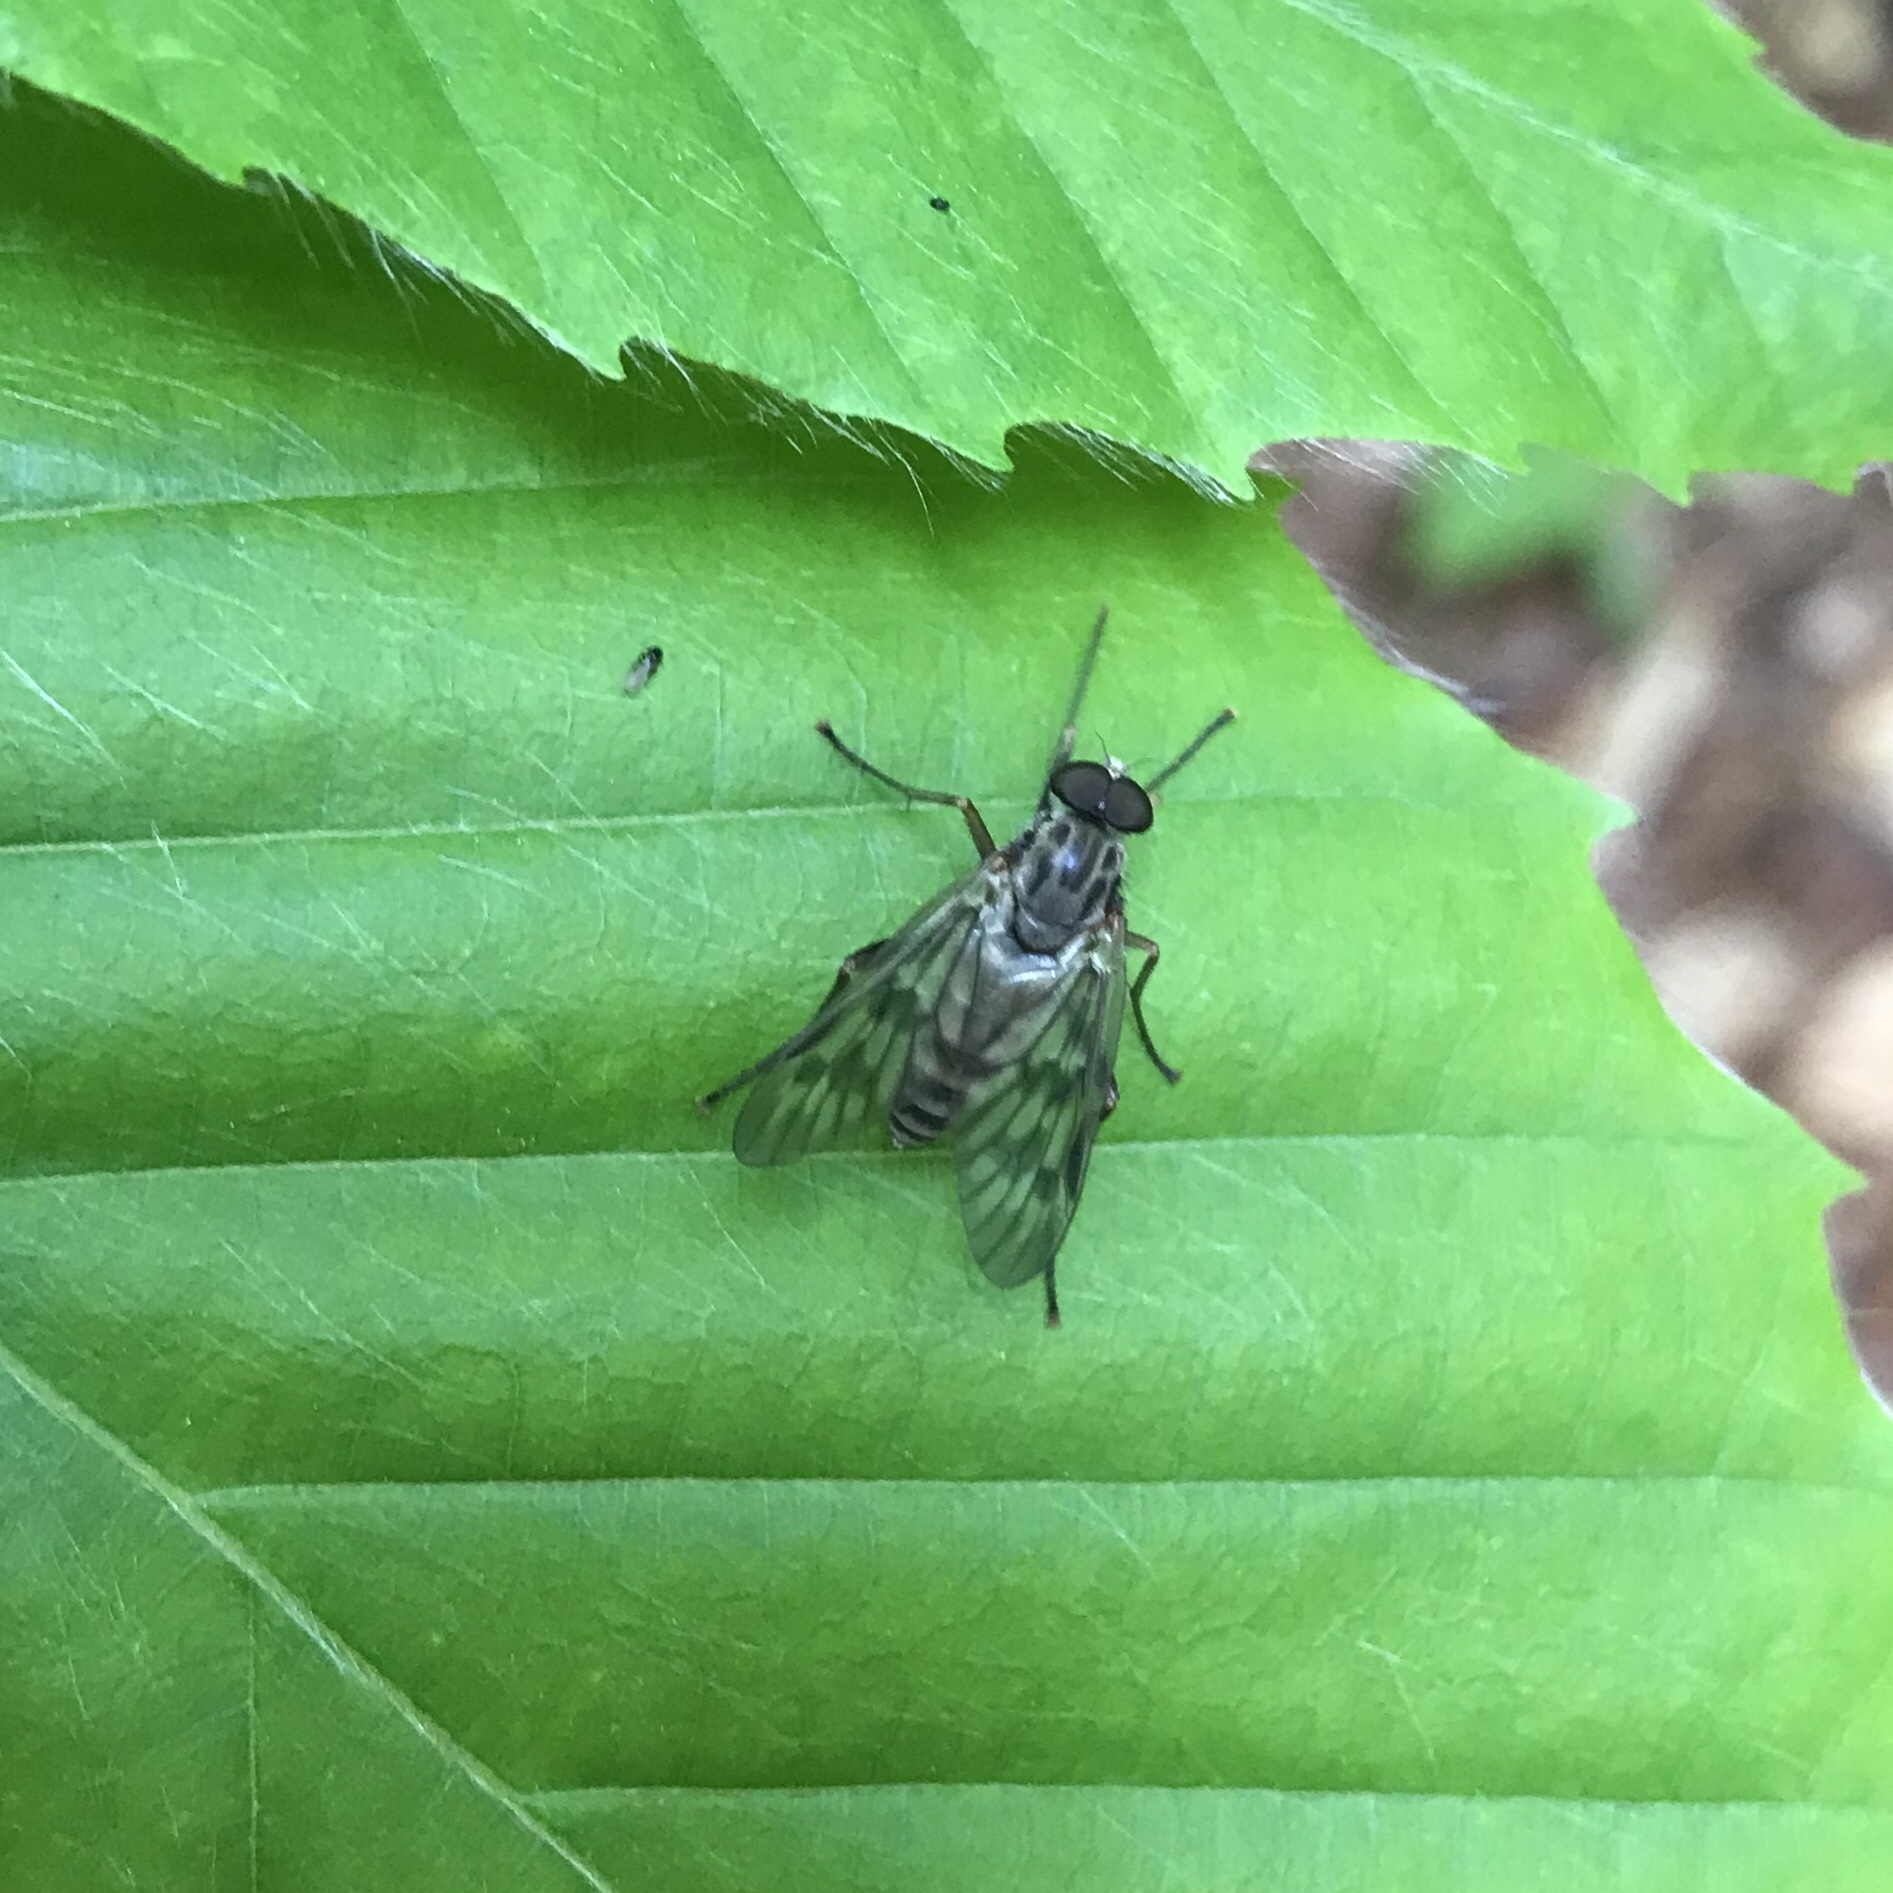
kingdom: Animalia
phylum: Arthropoda
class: Insecta
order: Diptera
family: Rhagionidae
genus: Rhagio
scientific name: Rhagio mystaceus
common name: Common snipe fly
